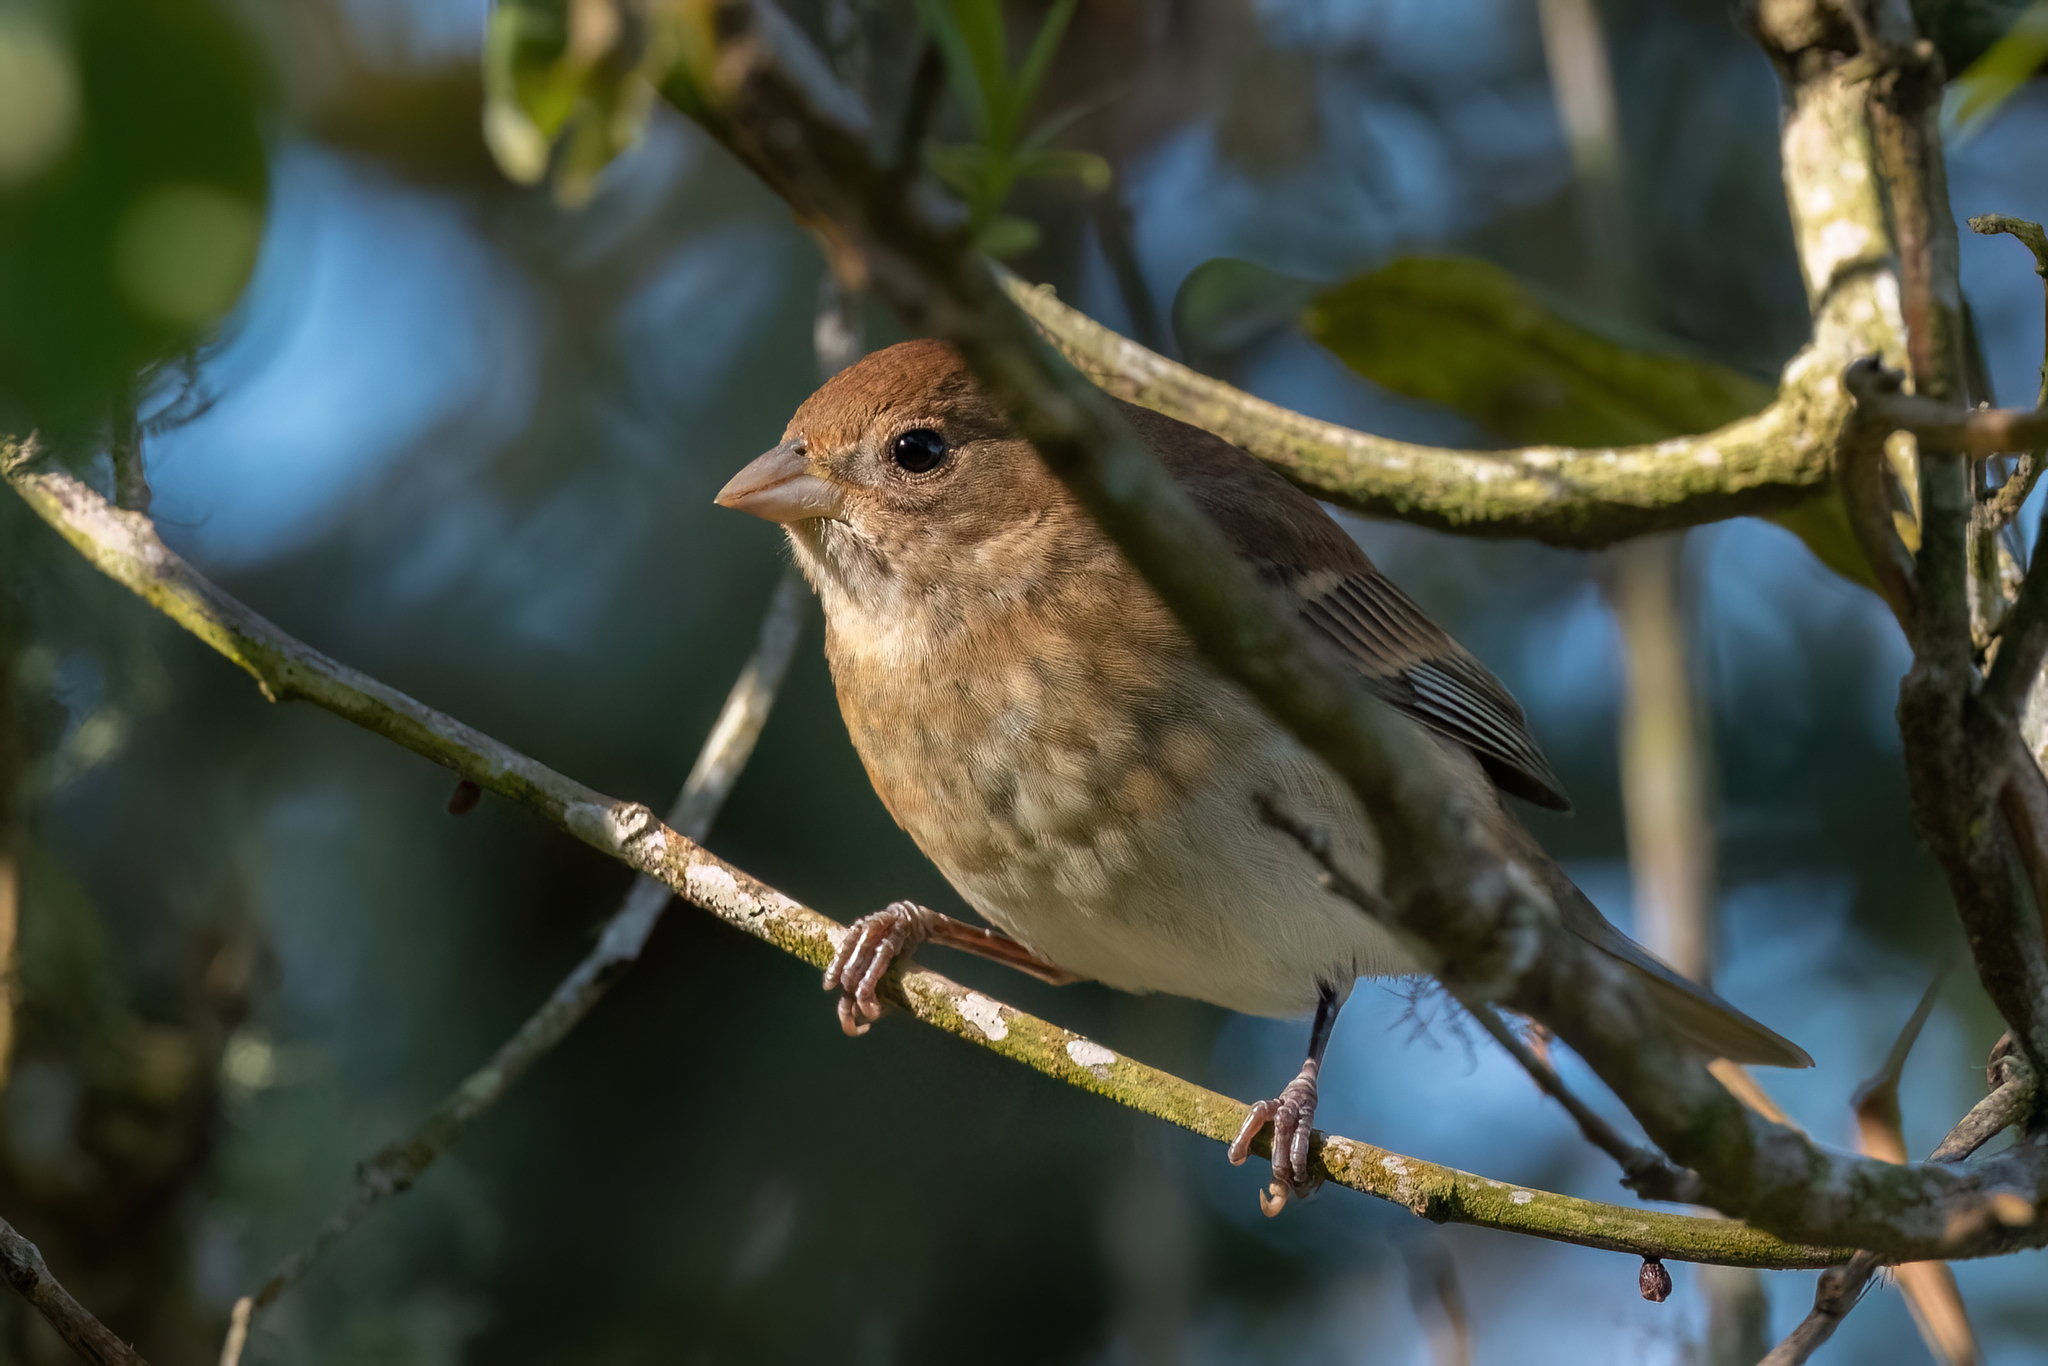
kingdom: Animalia
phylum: Chordata
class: Aves
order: Passeriformes
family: Cardinalidae
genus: Passerina
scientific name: Passerina cyanea
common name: Indigo bunting
